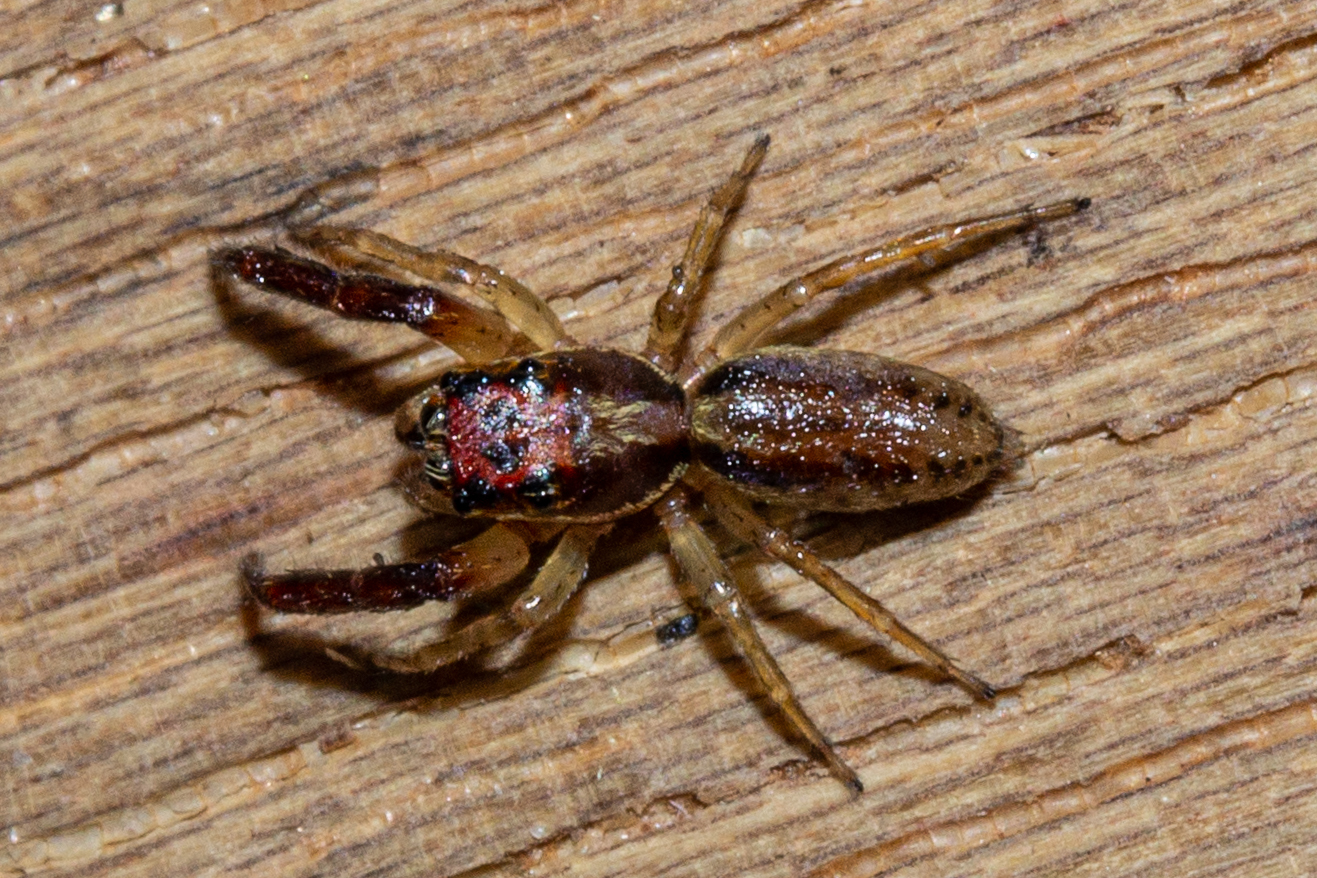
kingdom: Animalia
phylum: Arthropoda
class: Arachnida
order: Araneae
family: Salticidae
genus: Trite
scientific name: Trite mustilina
